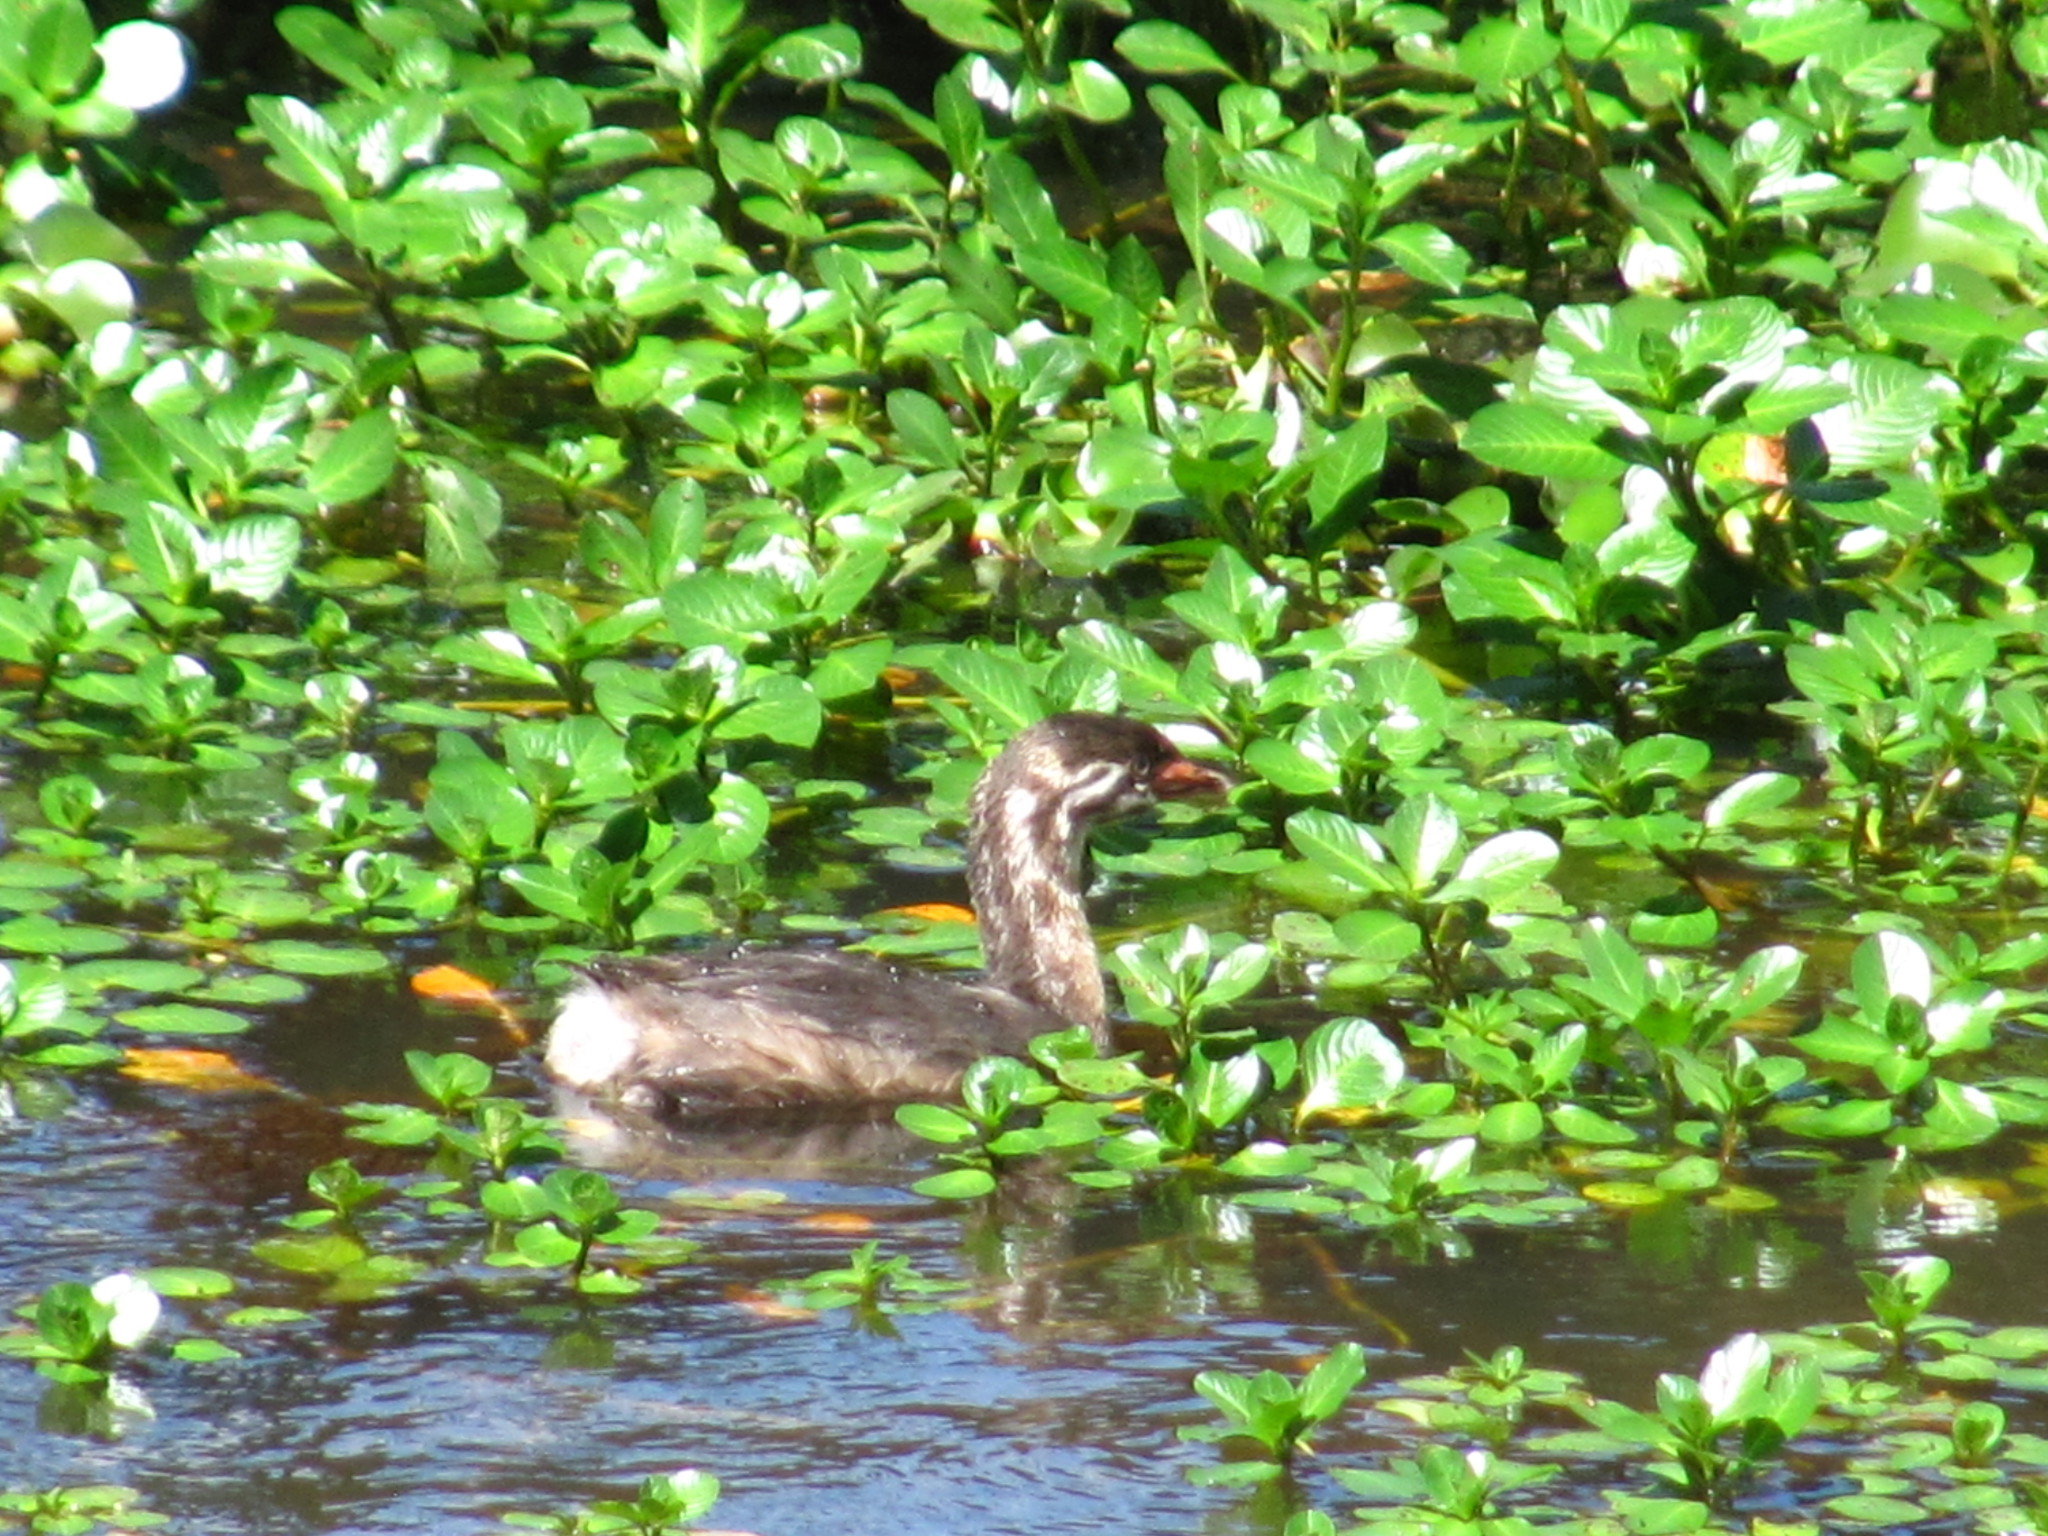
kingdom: Animalia
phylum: Chordata
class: Aves
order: Podicipediformes
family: Podicipedidae
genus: Podilymbus
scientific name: Podilymbus podiceps
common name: Pied-billed grebe
